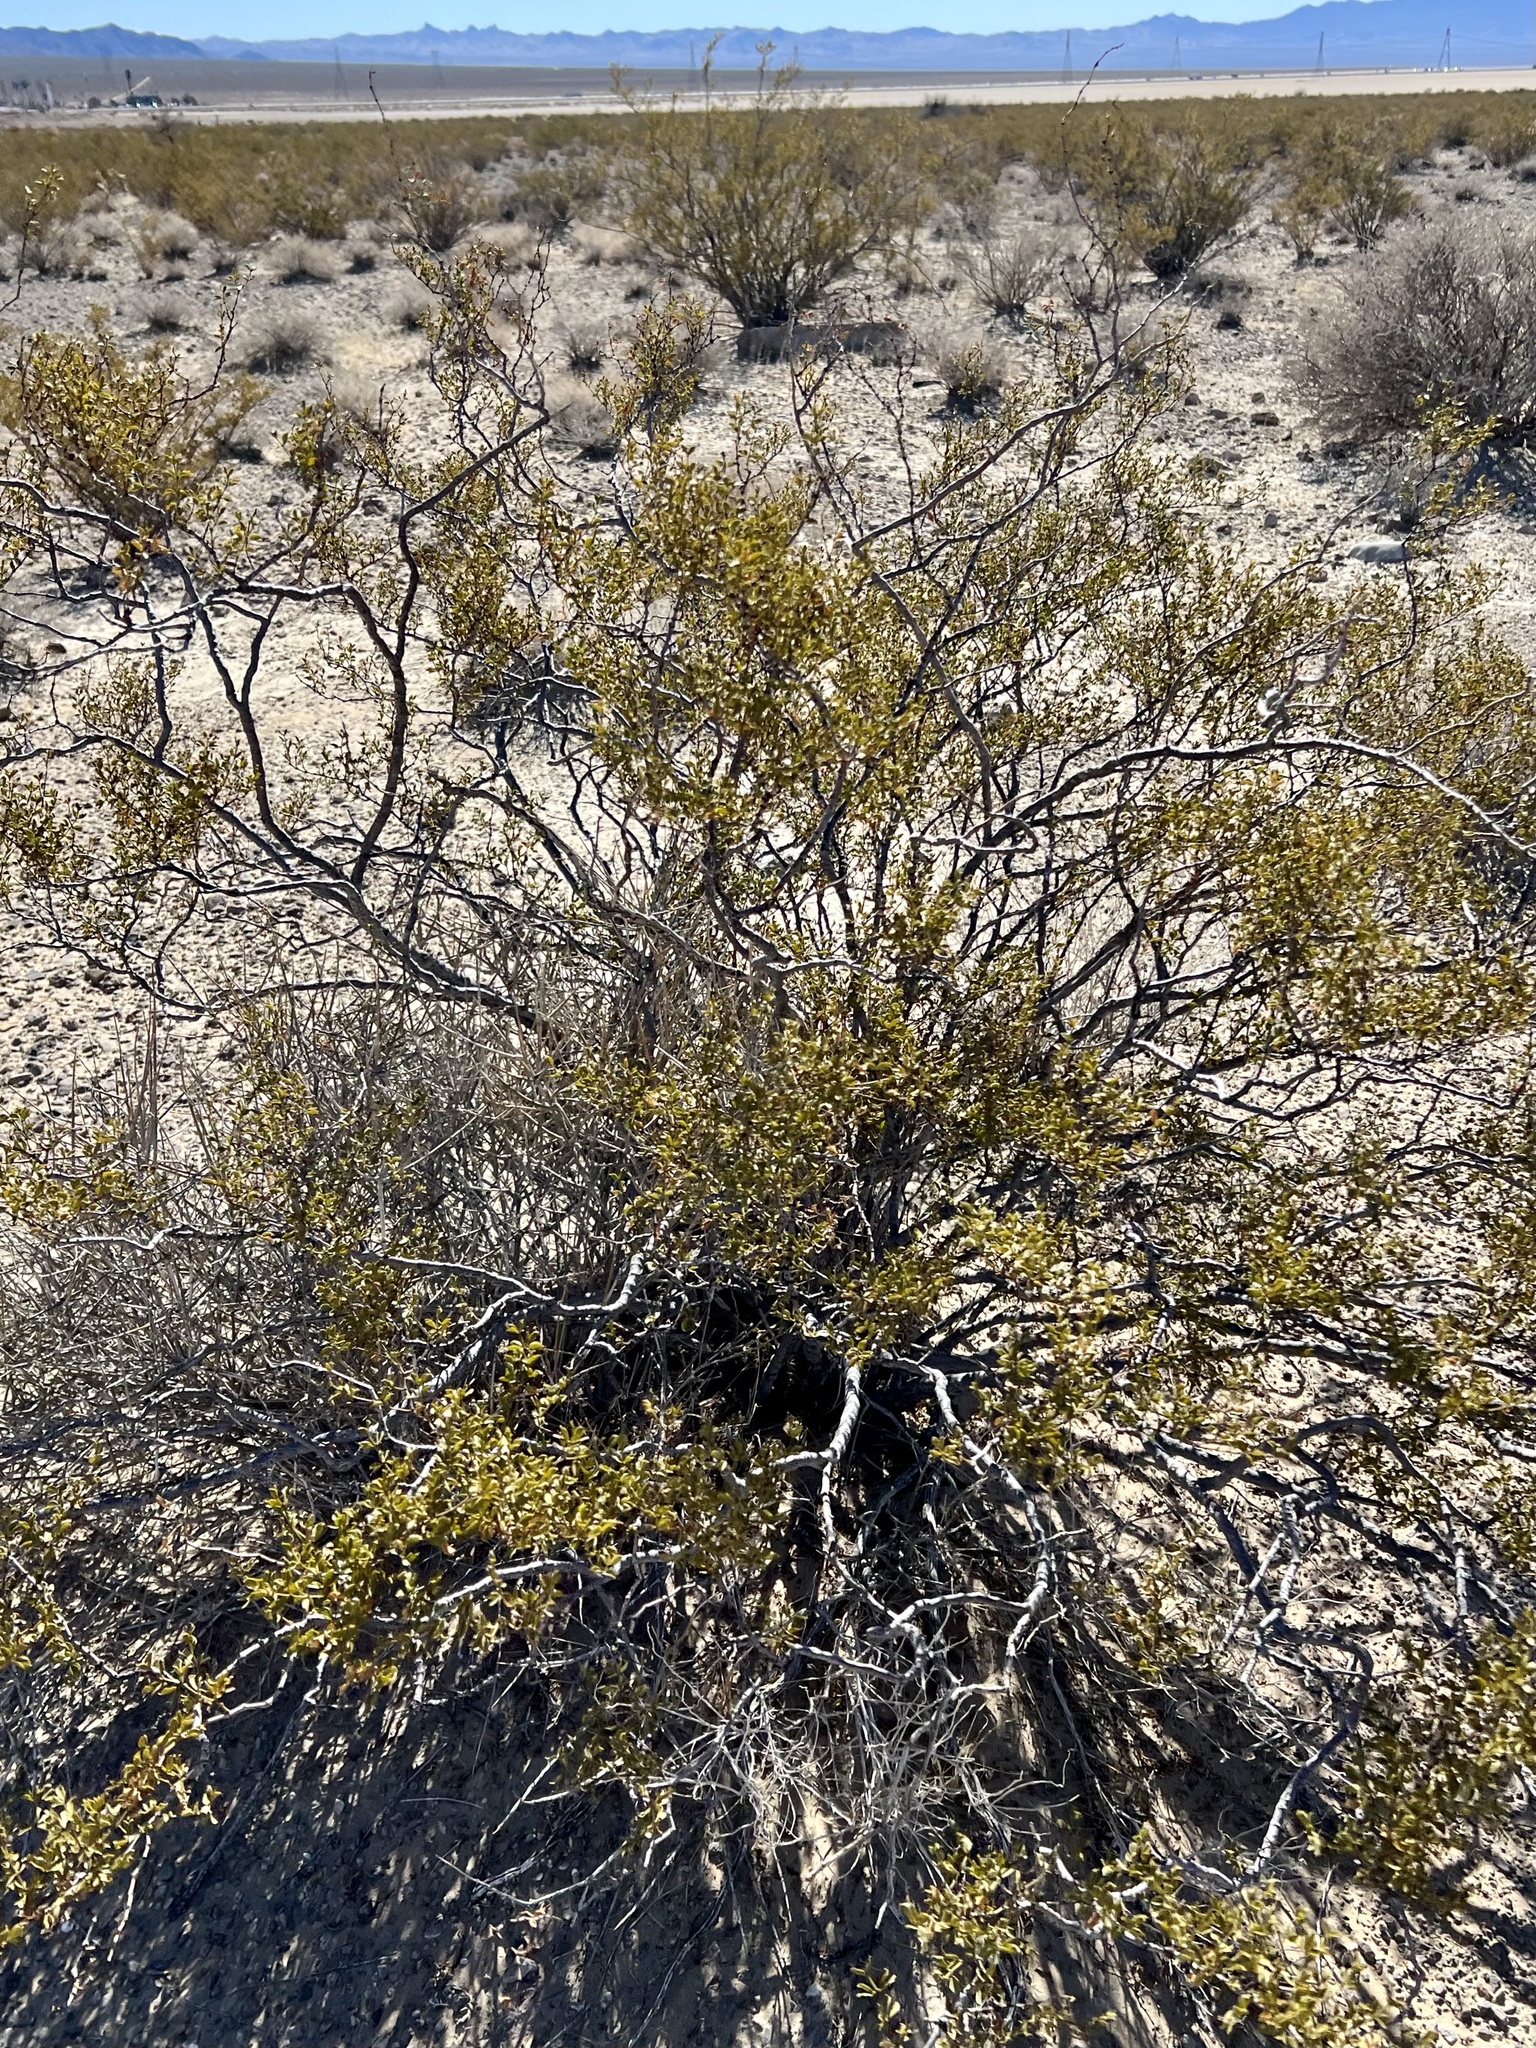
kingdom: Plantae
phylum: Tracheophyta
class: Magnoliopsida
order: Zygophyllales
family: Zygophyllaceae
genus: Larrea
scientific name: Larrea tridentata
